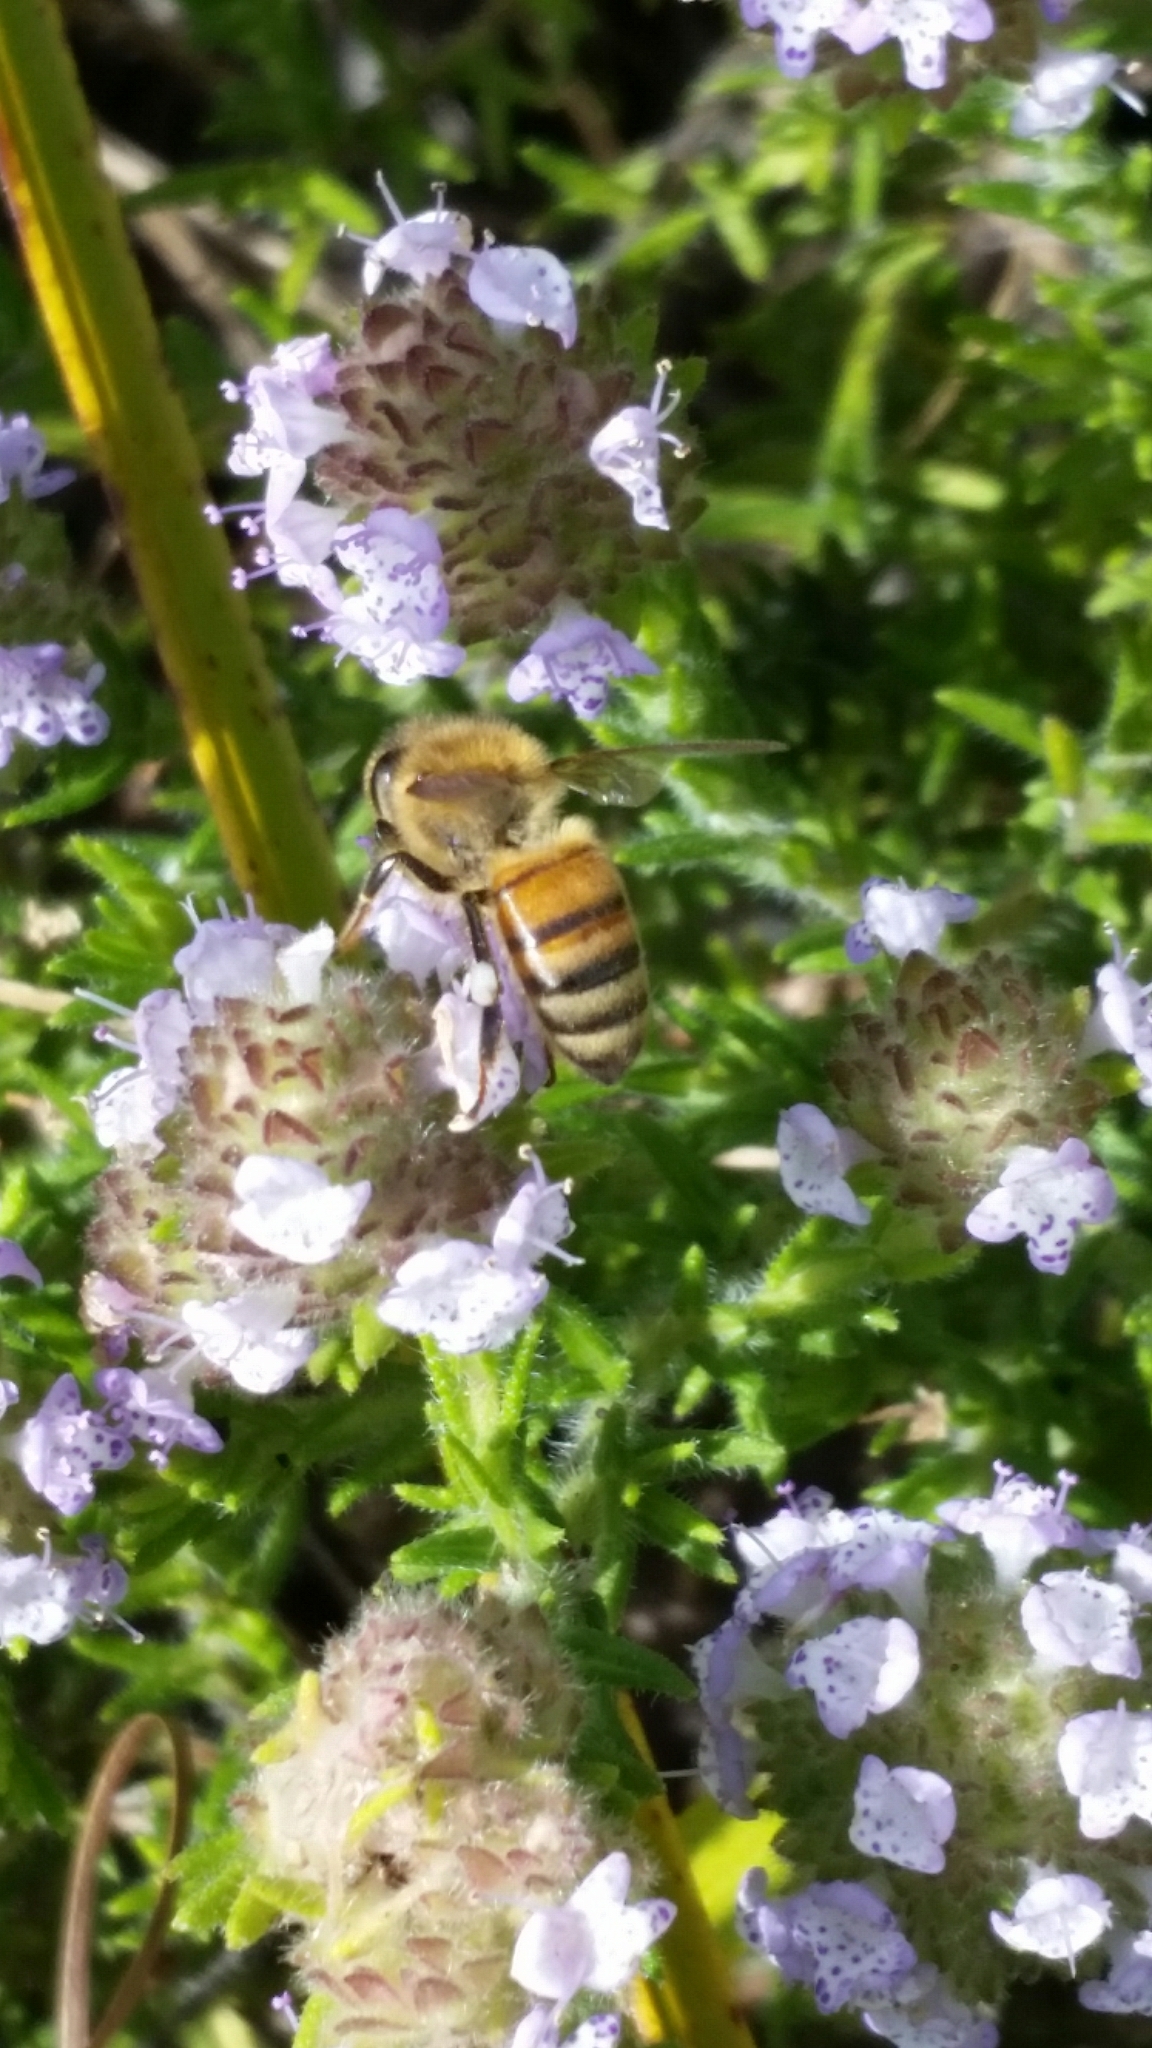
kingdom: Animalia
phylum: Arthropoda
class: Insecta
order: Hymenoptera
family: Apidae
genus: Apis
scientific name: Apis mellifera
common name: Honey bee
